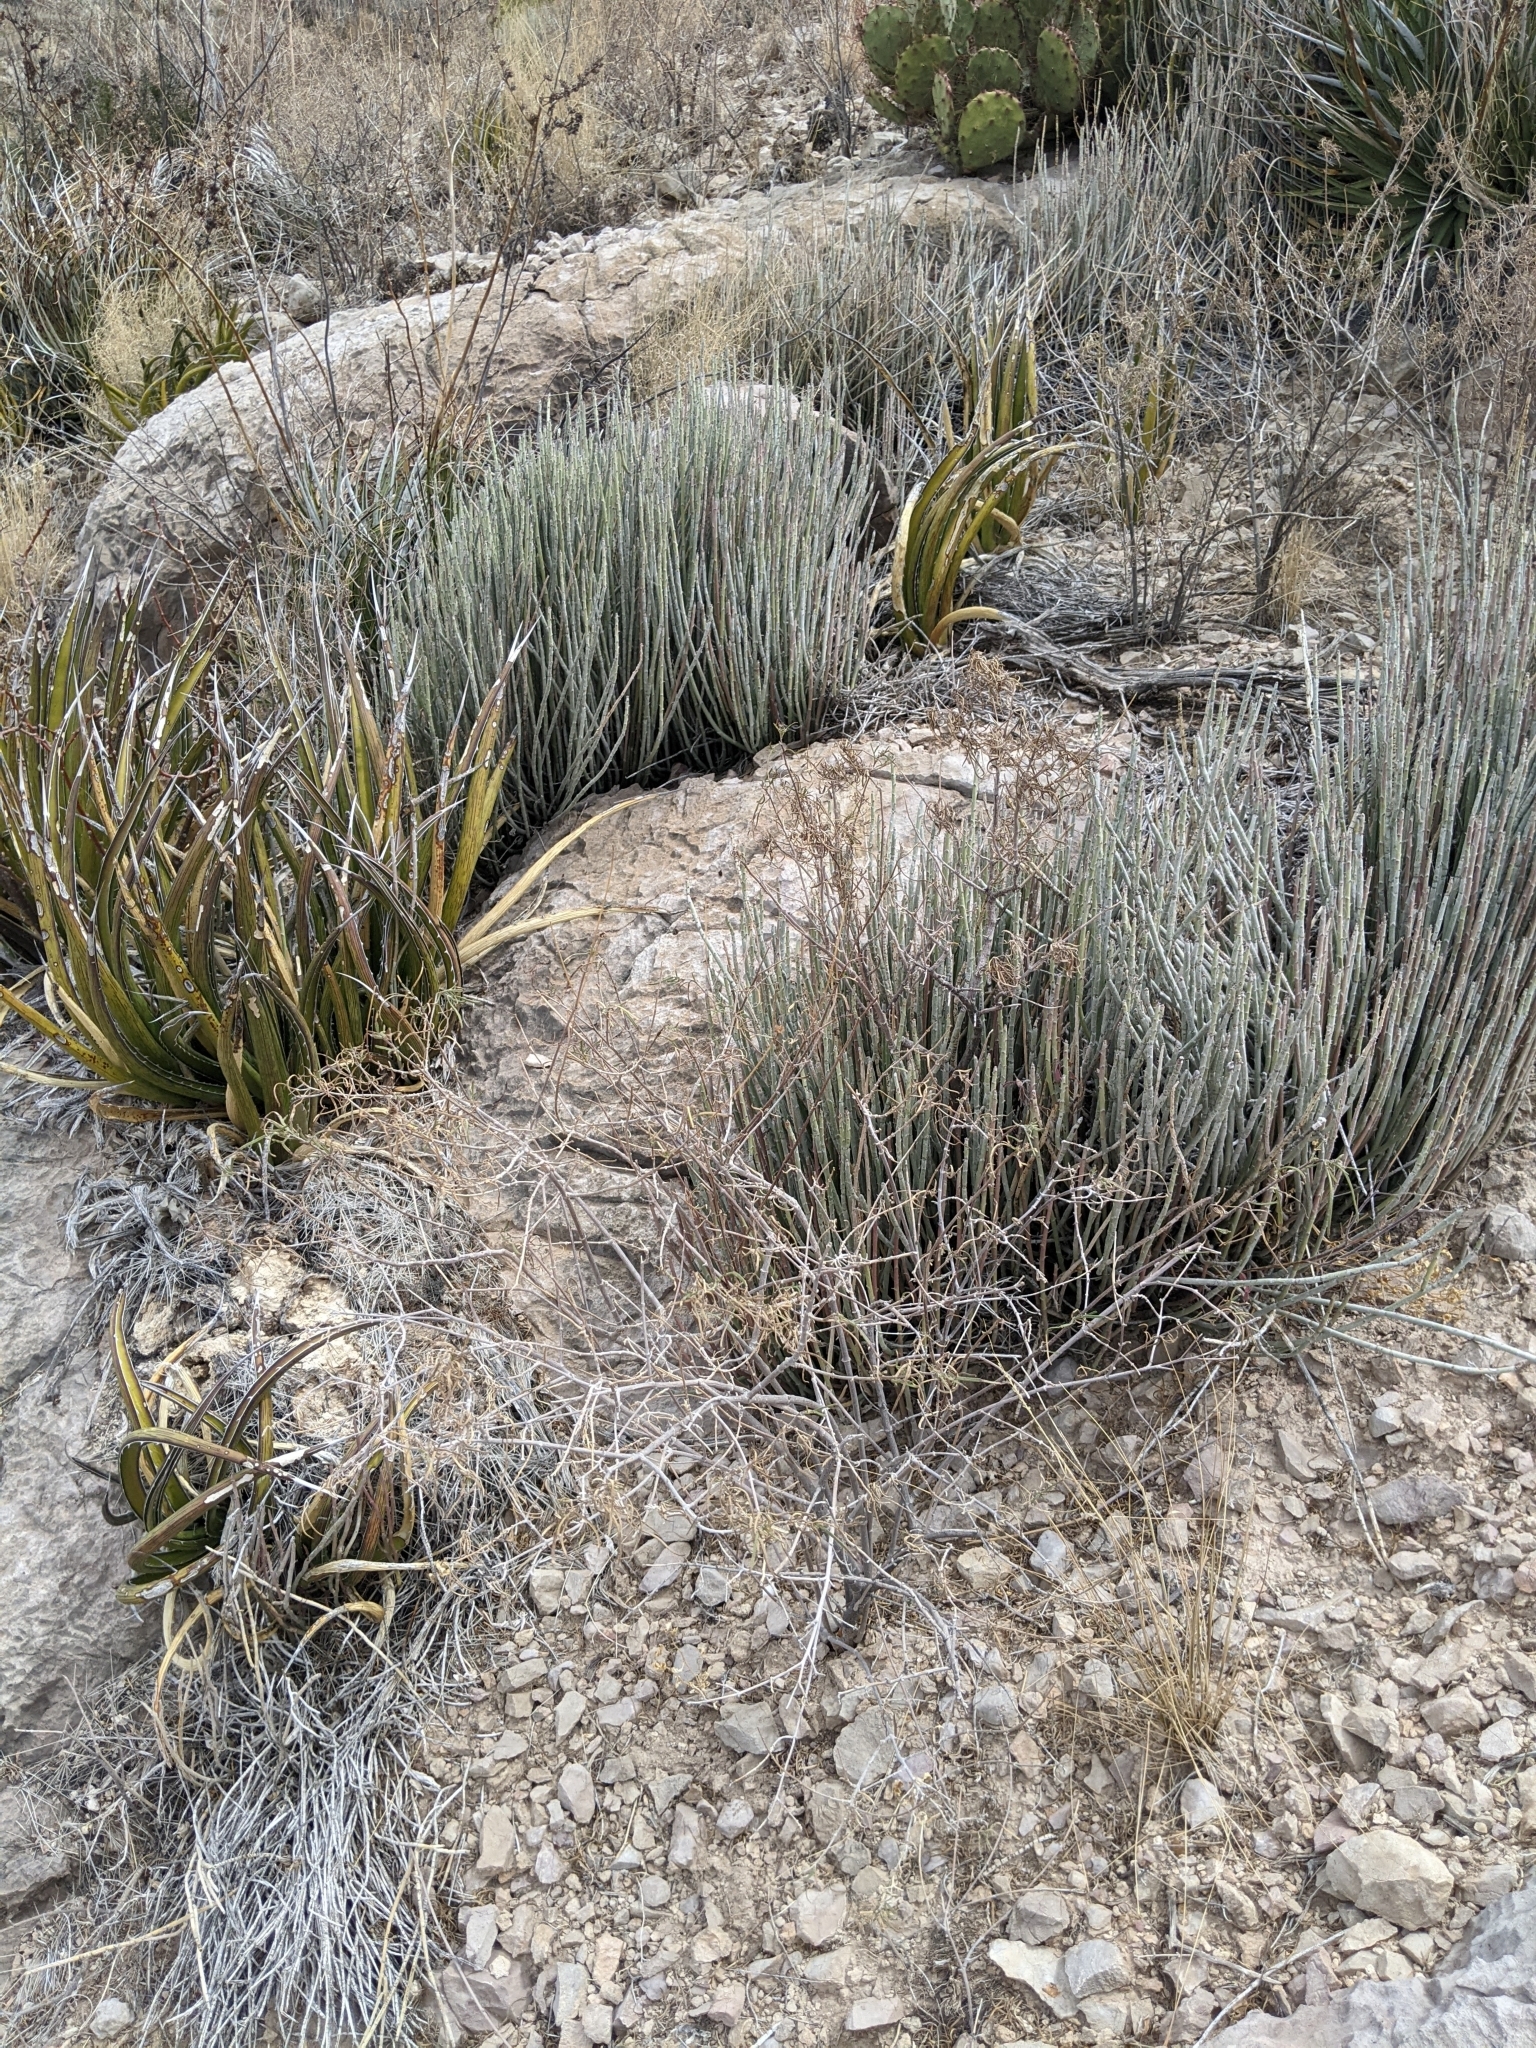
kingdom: Plantae
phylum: Tracheophyta
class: Magnoliopsida
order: Malpighiales
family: Euphorbiaceae
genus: Euphorbia
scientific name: Euphorbia antisyphilitica
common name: Candelilla
